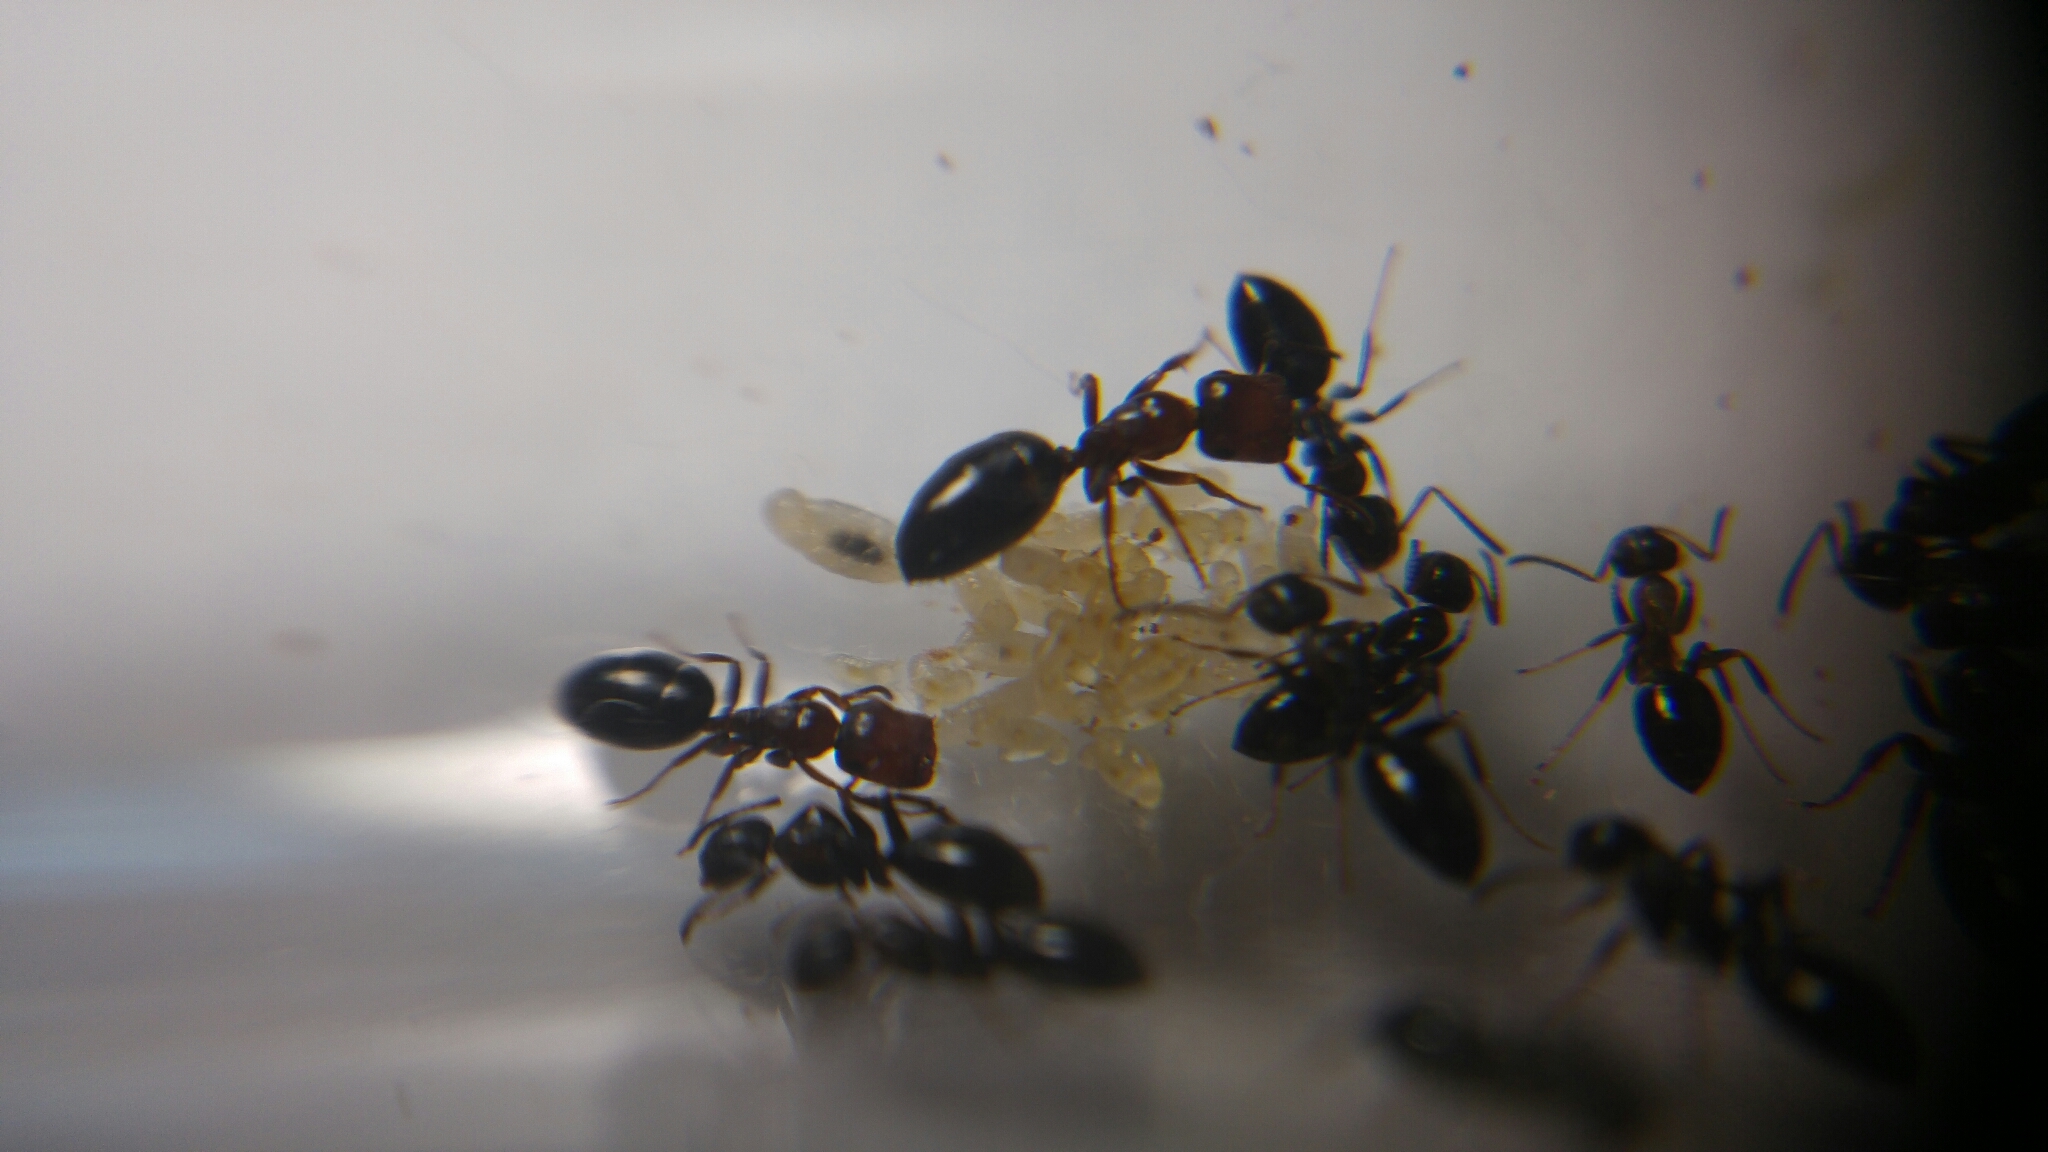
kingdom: Animalia
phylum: Arthropoda
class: Insecta
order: Hymenoptera
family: Formicidae
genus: Camponotus
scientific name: Camponotus truncatus
